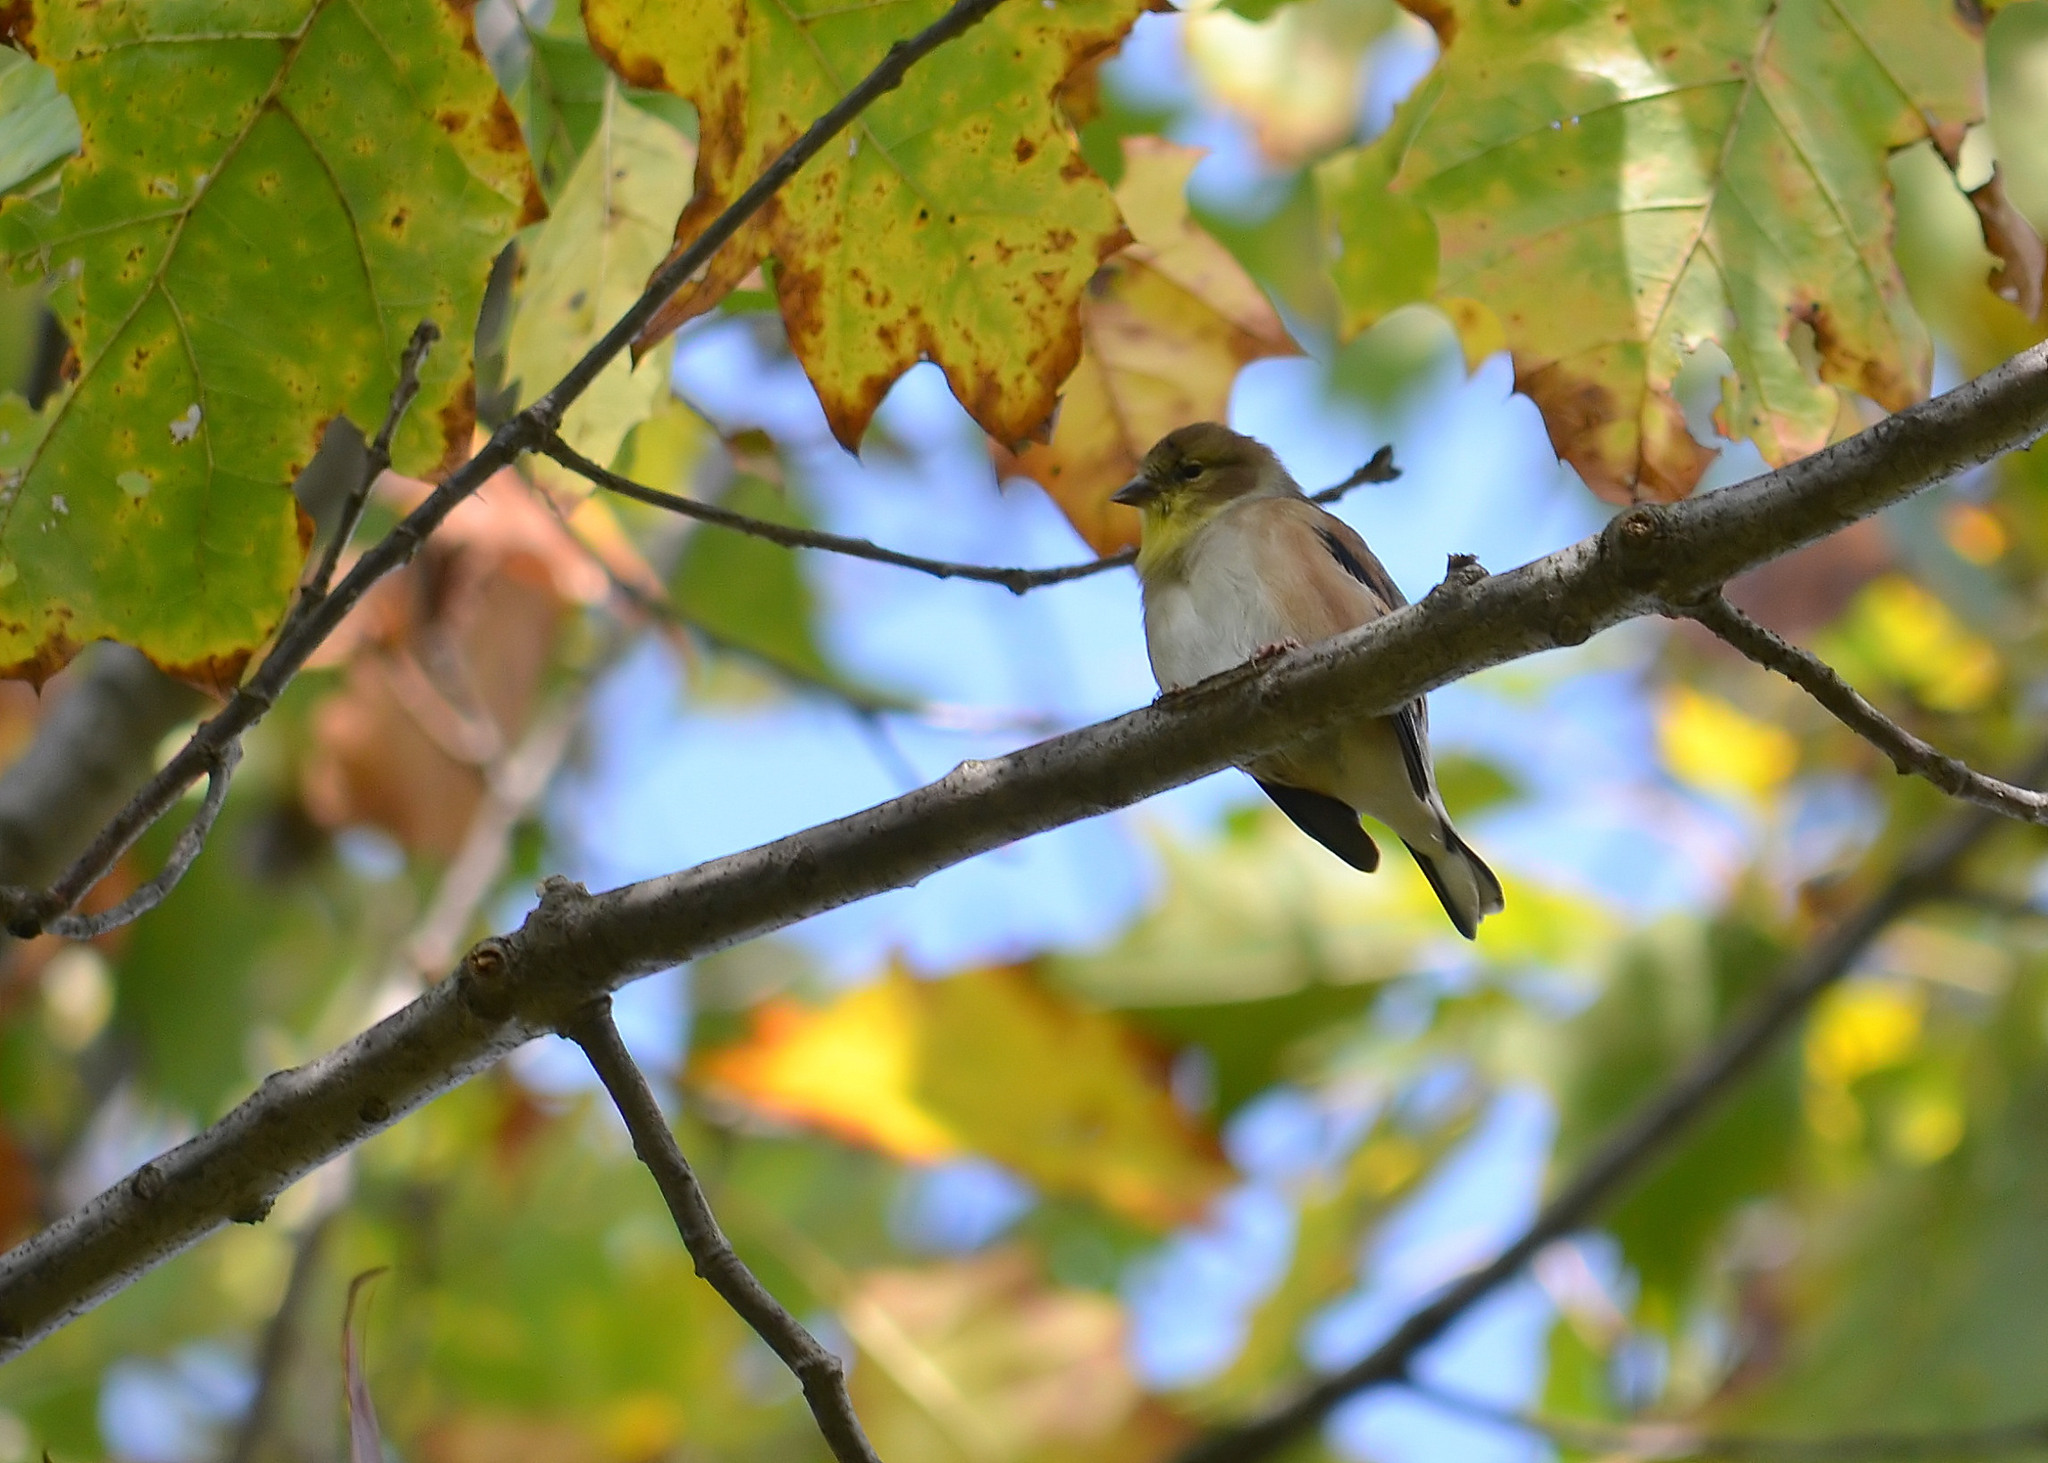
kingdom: Animalia
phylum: Chordata
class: Aves
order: Passeriformes
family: Fringillidae
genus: Spinus
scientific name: Spinus tristis
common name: American goldfinch
